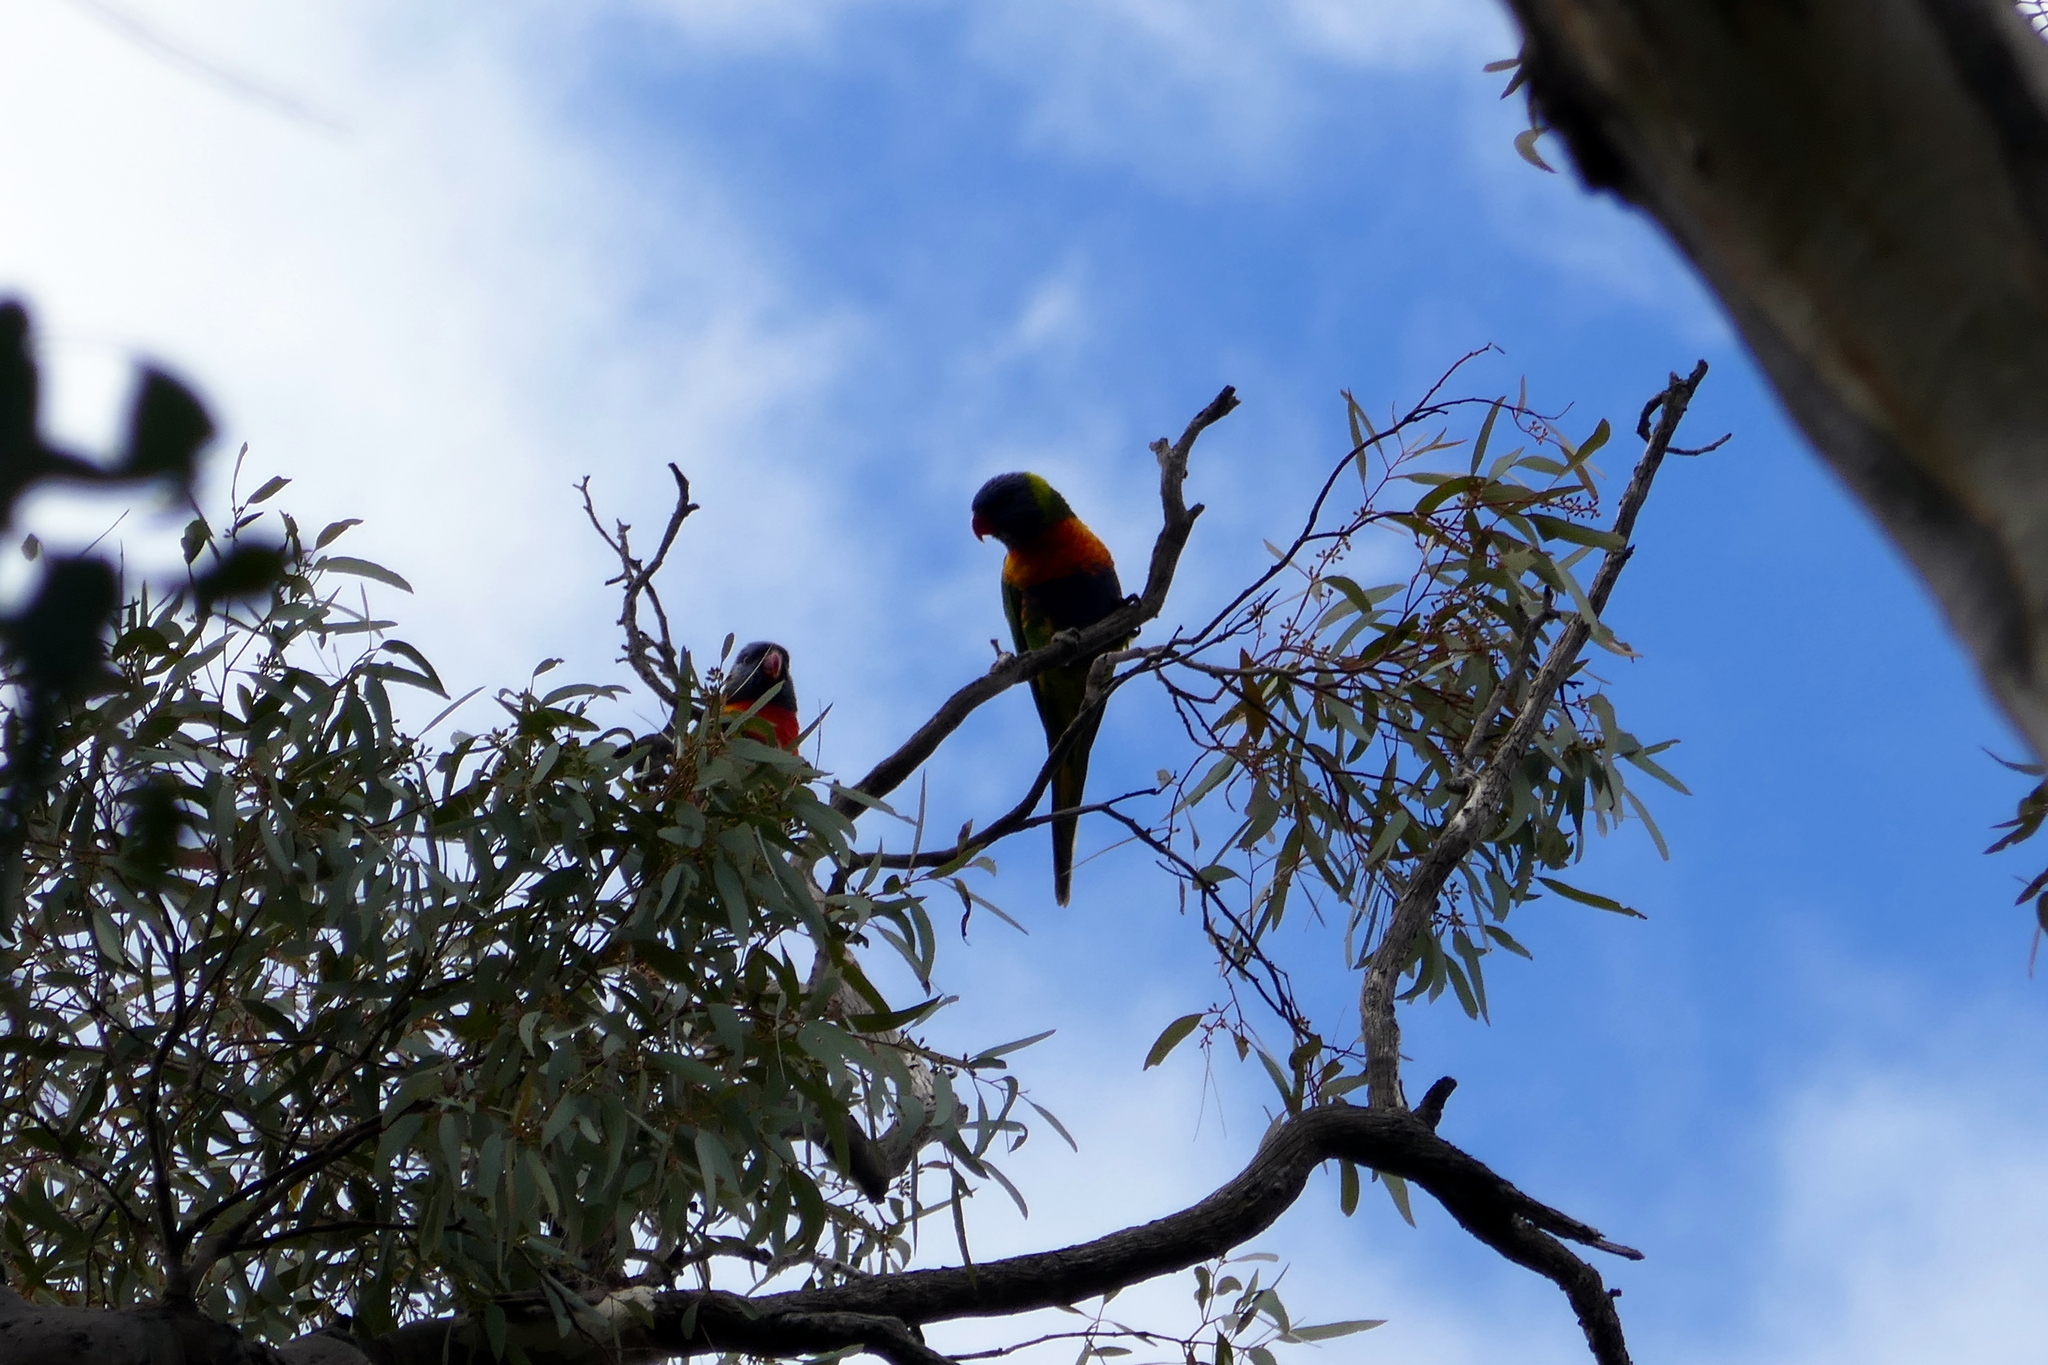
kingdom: Animalia
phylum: Chordata
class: Aves
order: Psittaciformes
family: Psittacidae
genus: Trichoglossus
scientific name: Trichoglossus haematodus
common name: Coconut lorikeet
